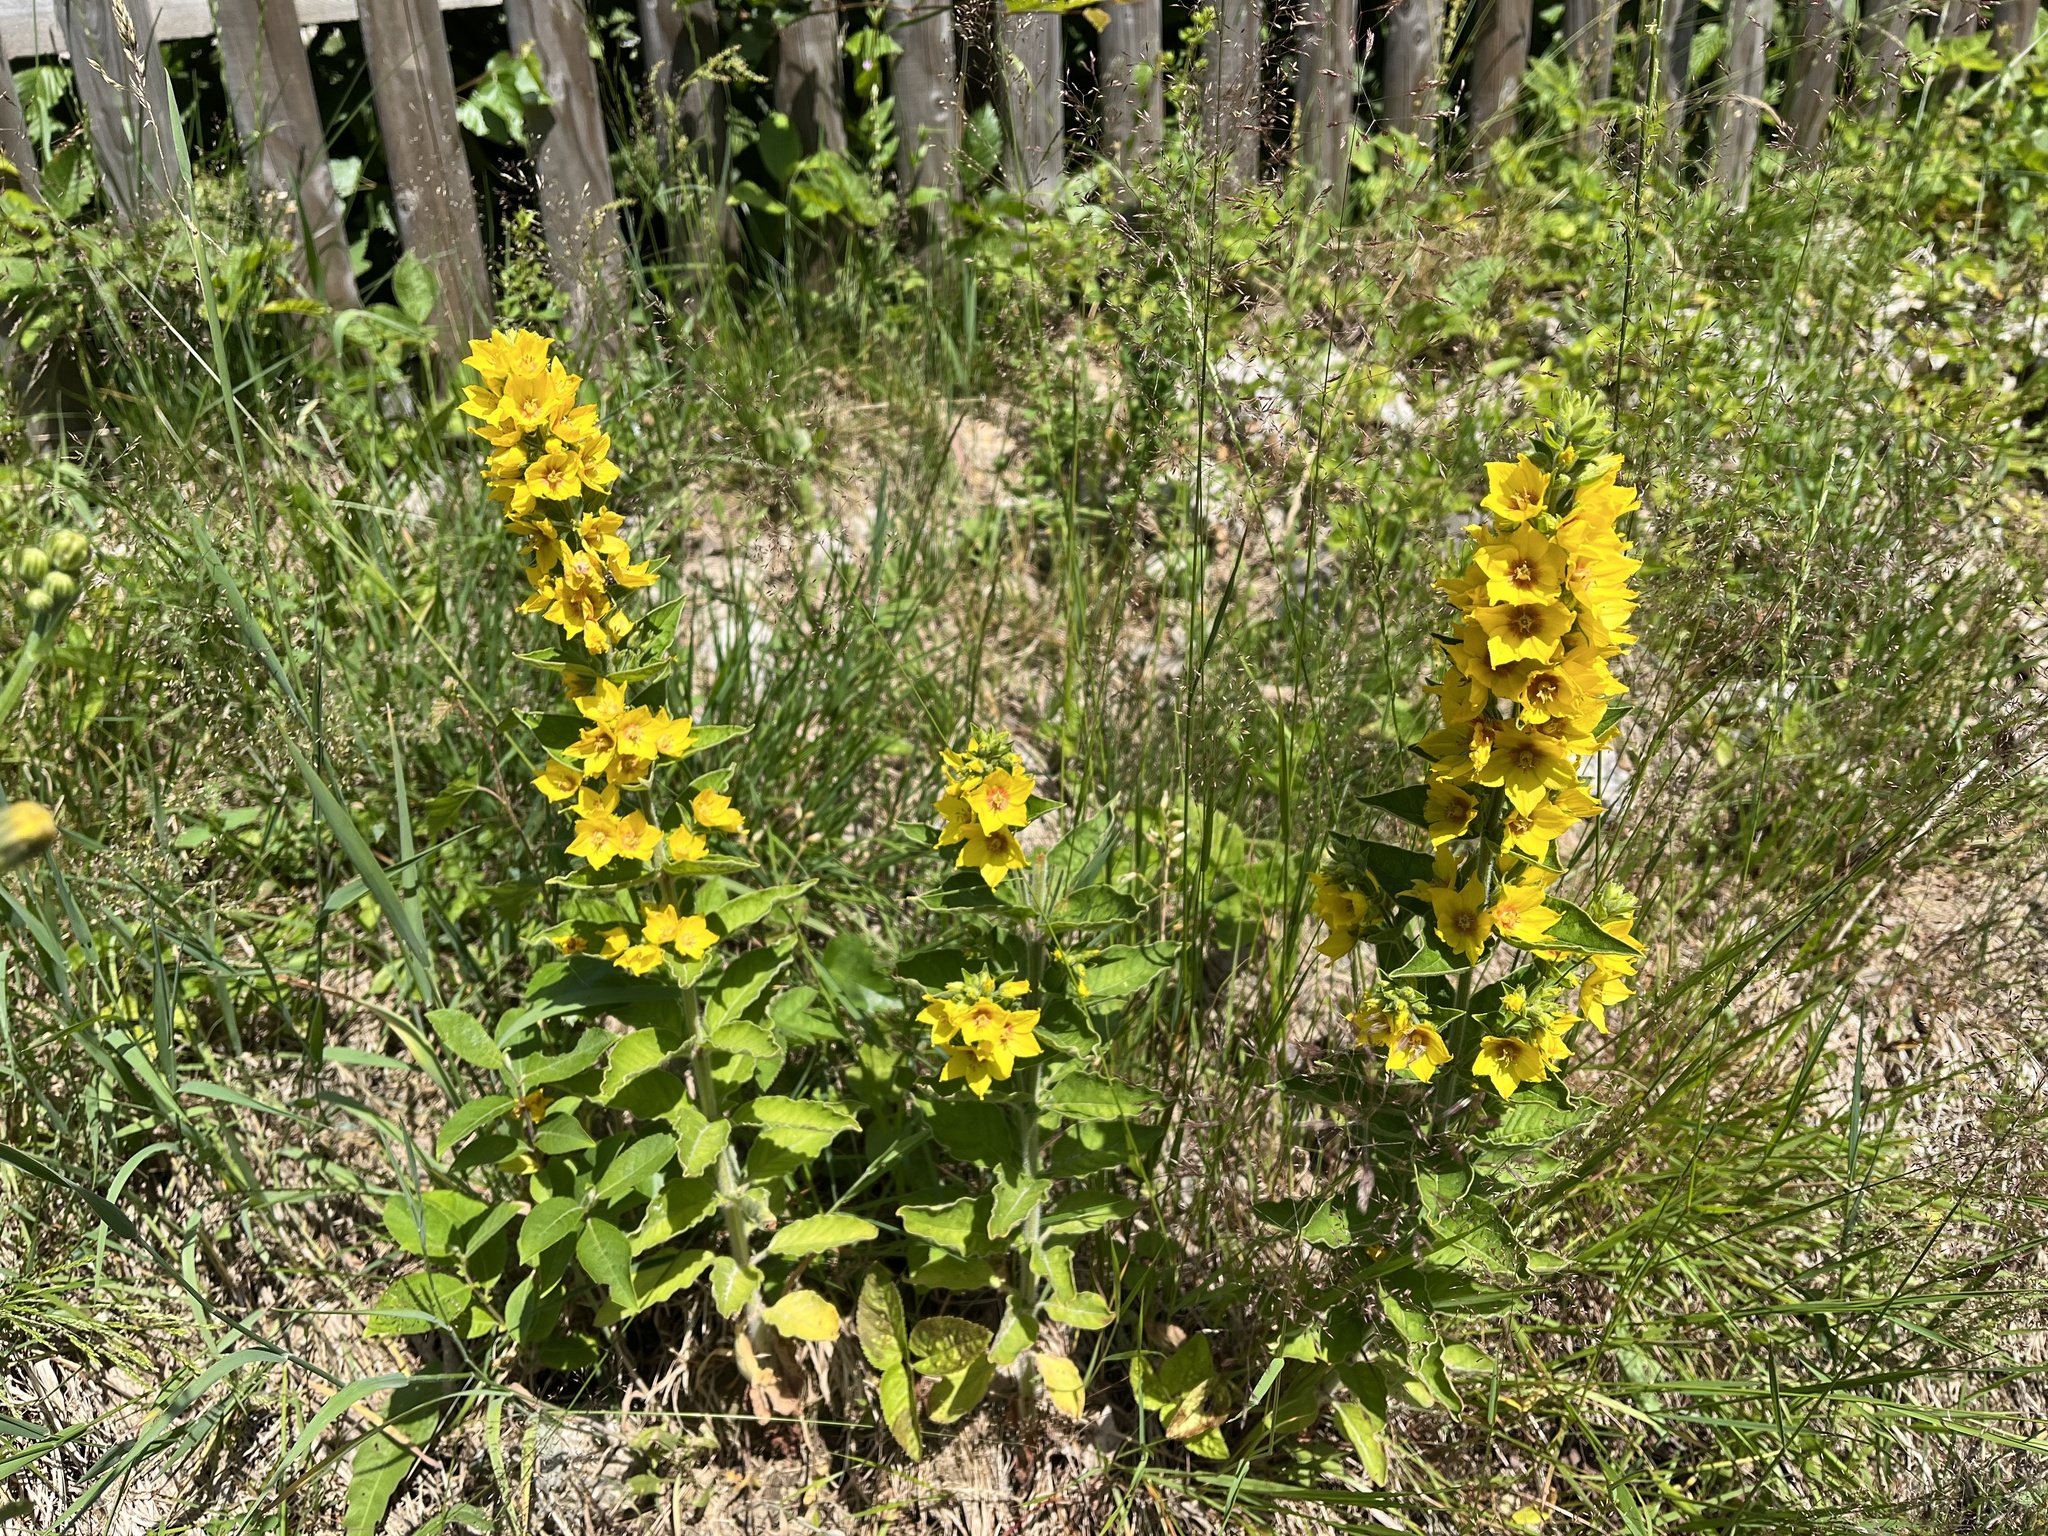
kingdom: Plantae
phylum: Tracheophyta
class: Magnoliopsida
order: Ericales
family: Primulaceae
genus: Lysimachia
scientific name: Lysimachia punctata
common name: Dotted loosestrife
